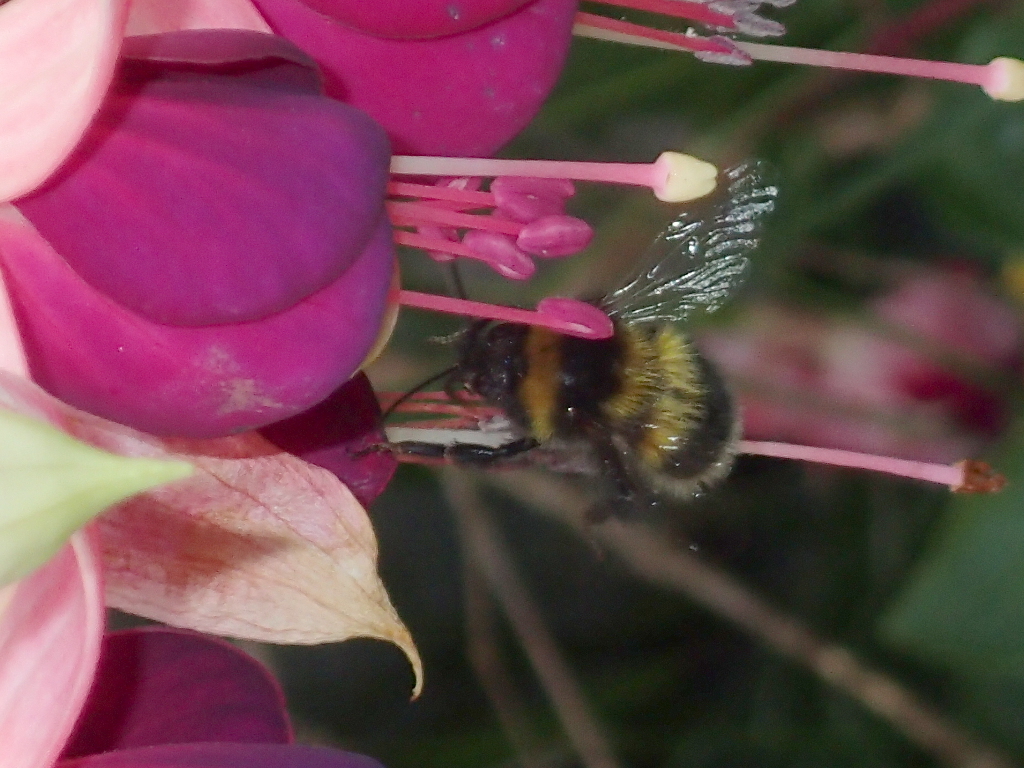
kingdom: Animalia
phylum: Arthropoda
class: Insecta
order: Hymenoptera
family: Apidae
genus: Megabombus
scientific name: Megabombus
